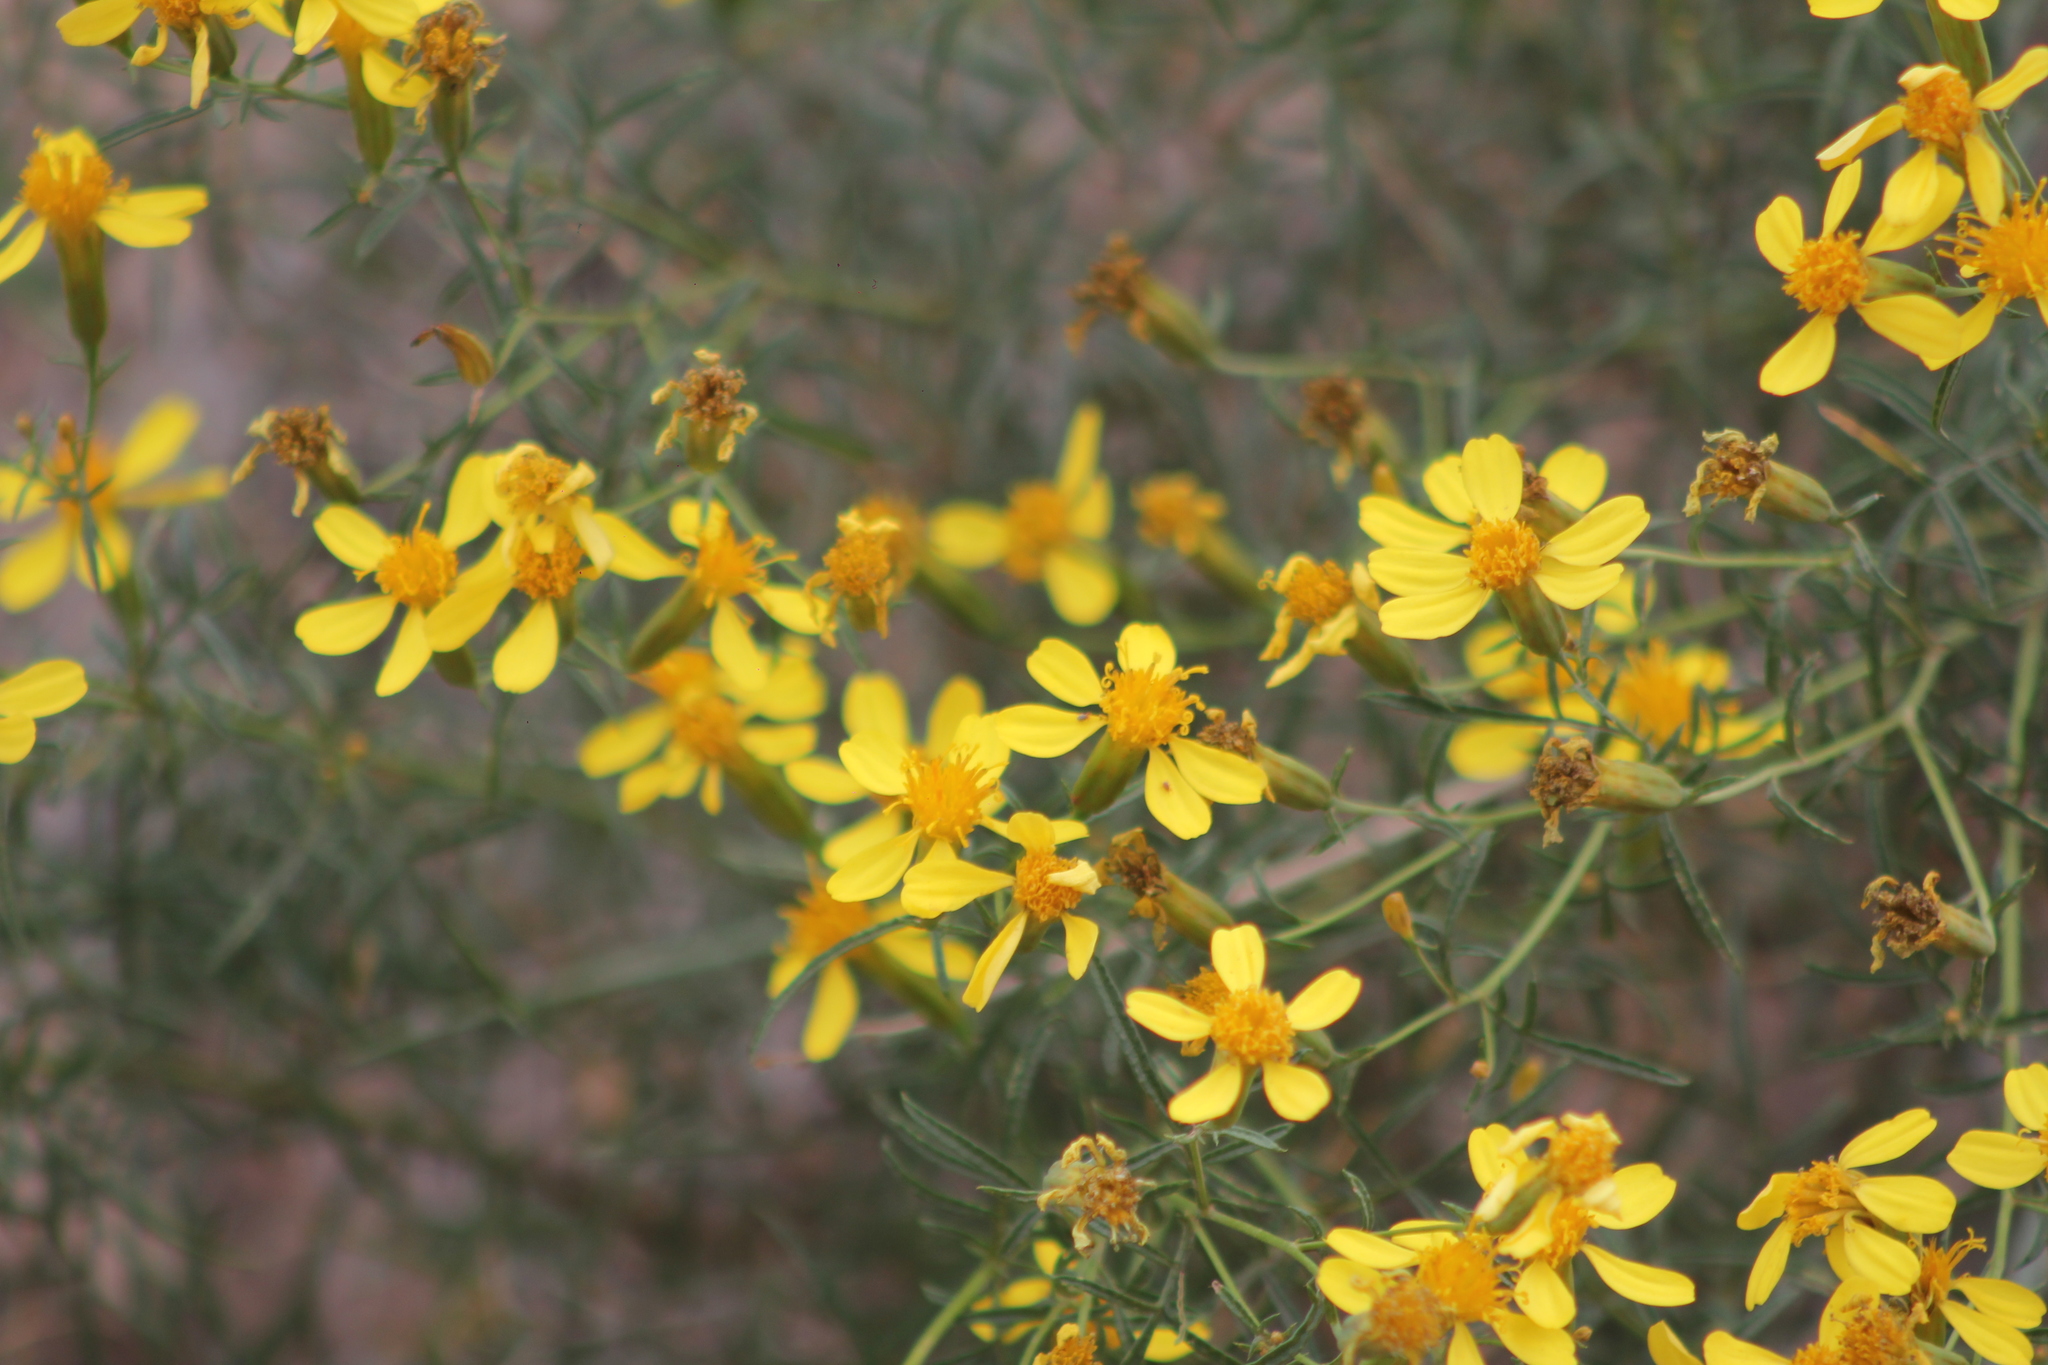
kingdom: Plantae
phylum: Tracheophyta
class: Magnoliopsida
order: Asterales
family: Asteraceae
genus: Tagetes
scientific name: Tagetes pauciloba
